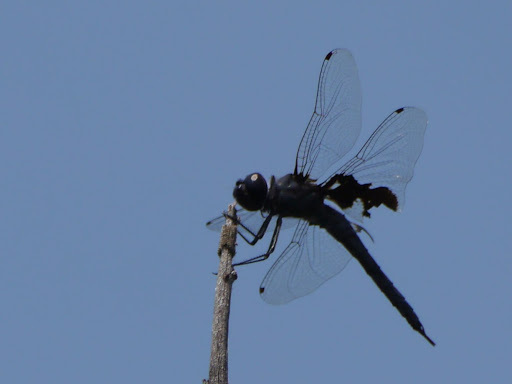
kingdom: Animalia
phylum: Arthropoda
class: Insecta
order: Odonata
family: Libellulidae
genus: Tramea
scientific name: Tramea lacerata
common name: Black saddlebags
